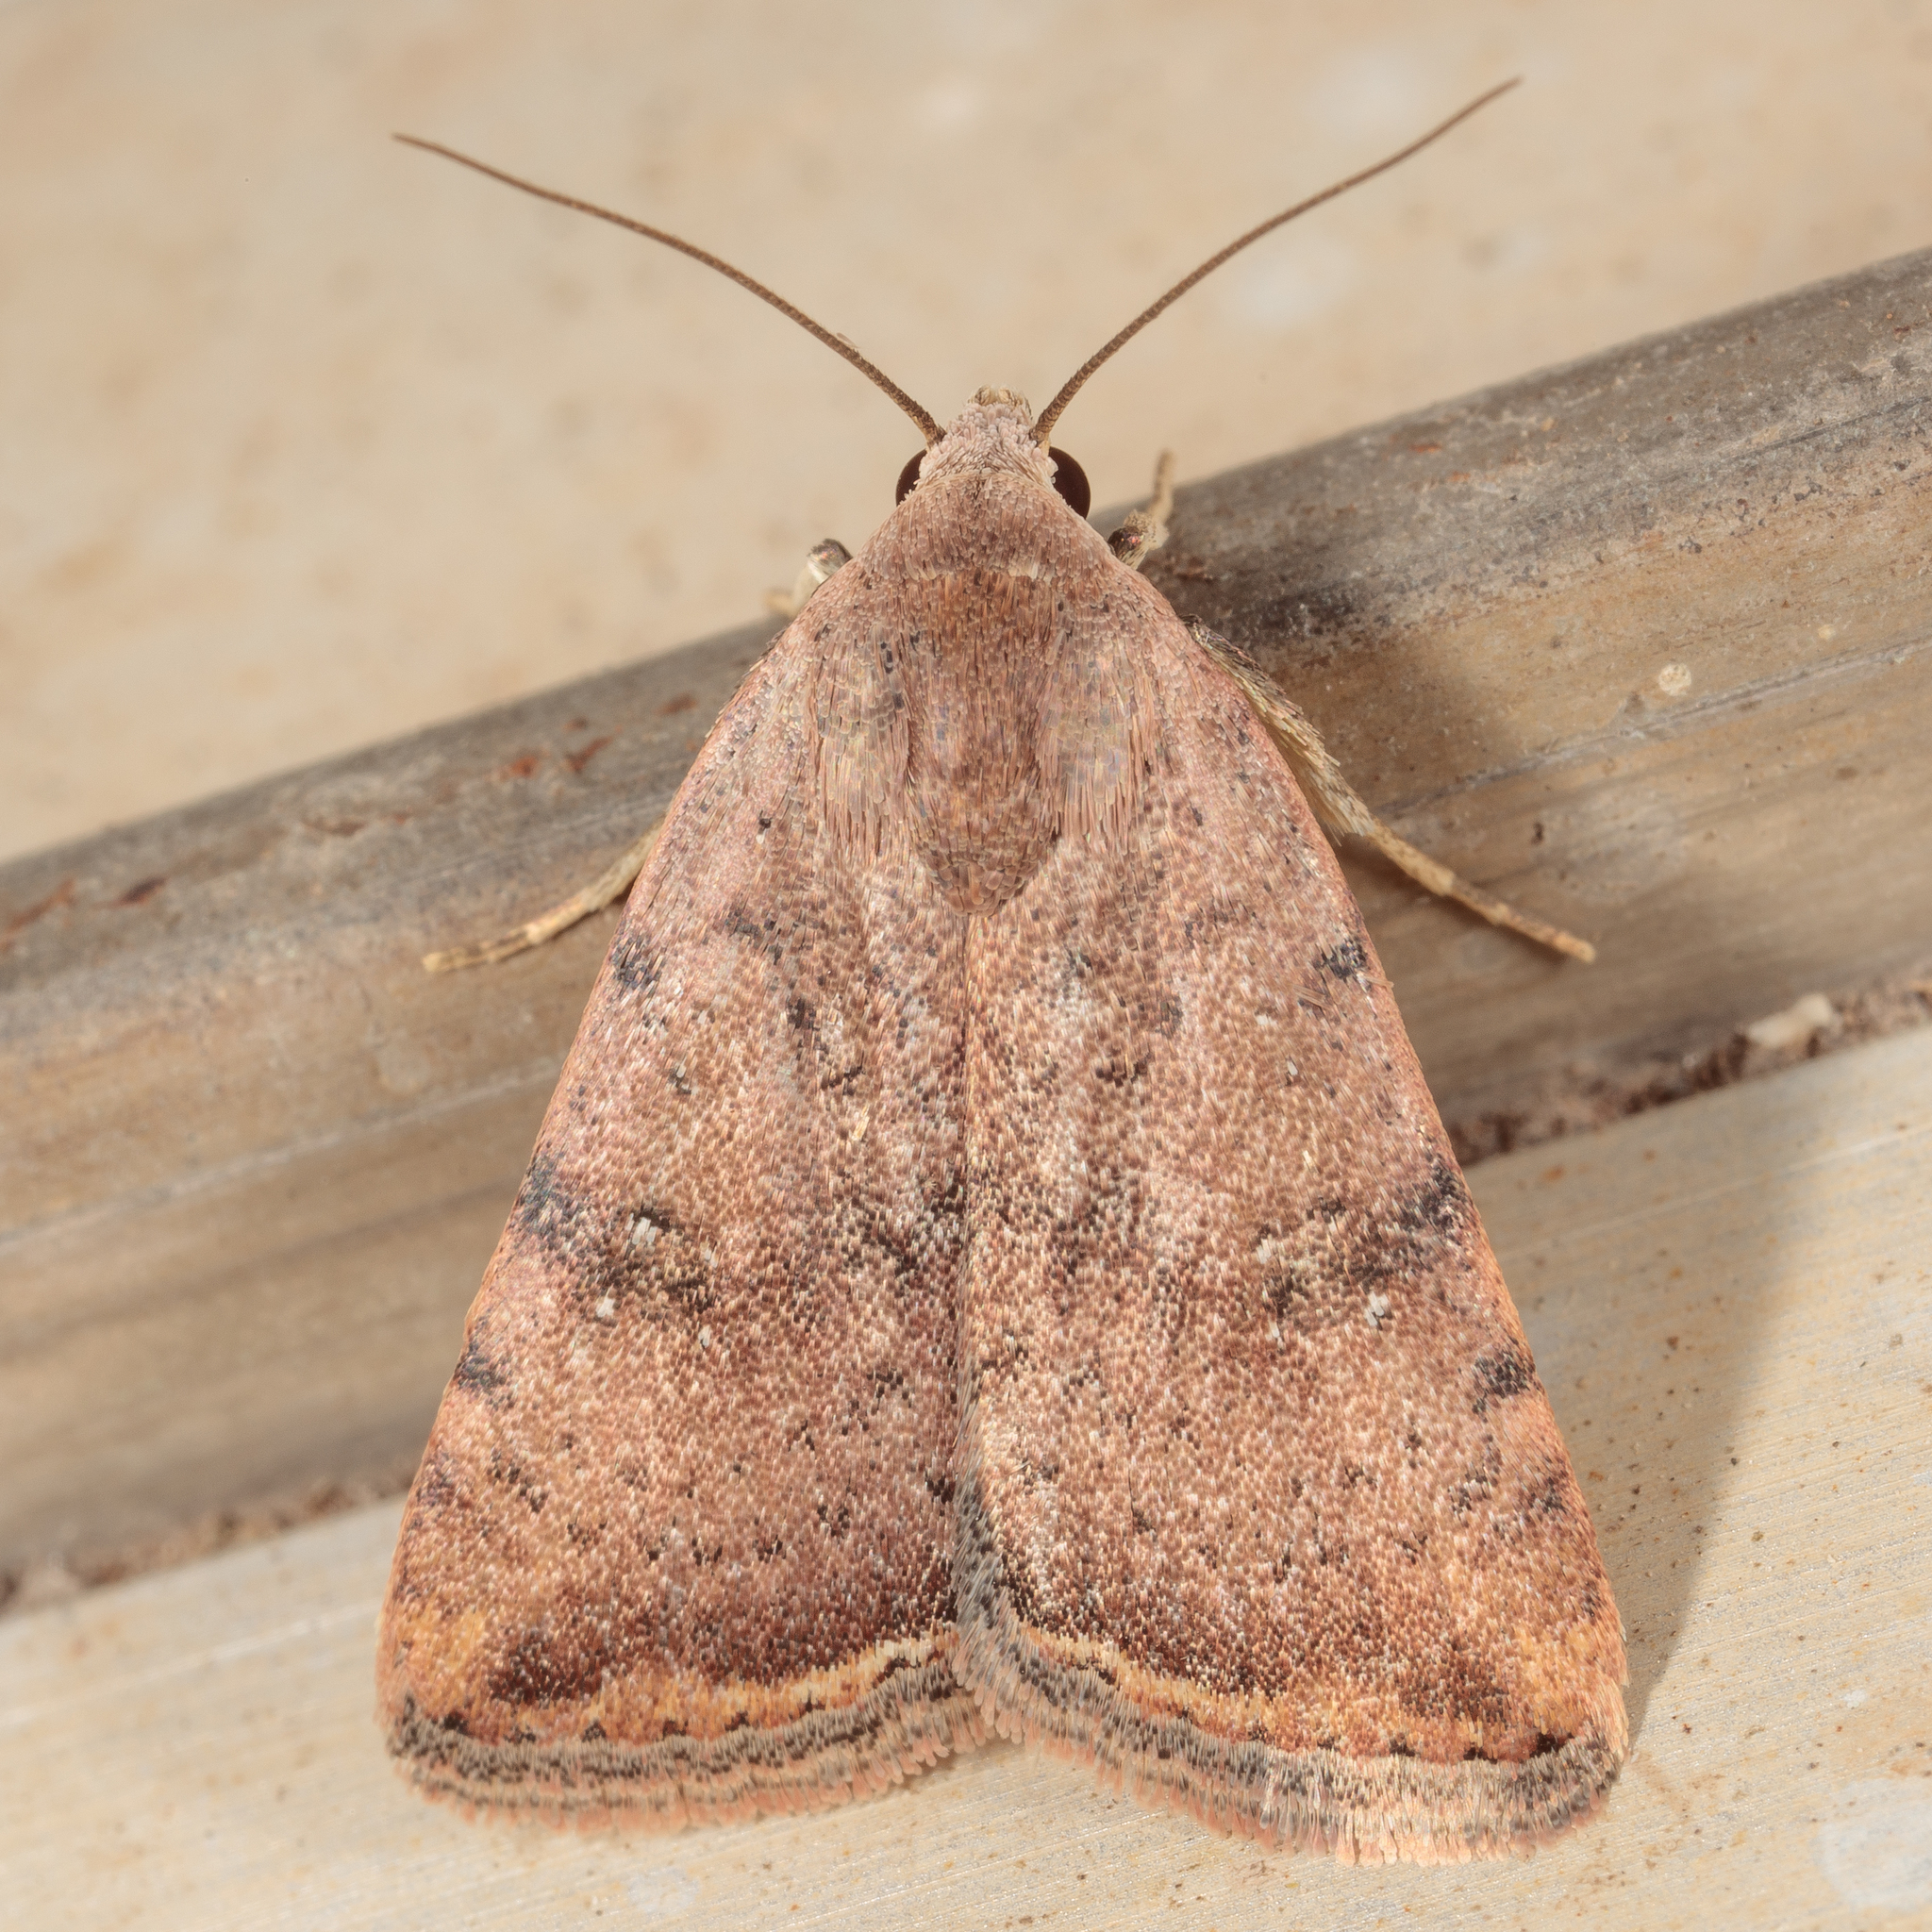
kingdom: Animalia
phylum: Arthropoda
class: Insecta
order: Lepidoptera
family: Noctuidae
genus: Micrathetis
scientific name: Micrathetis triplex
